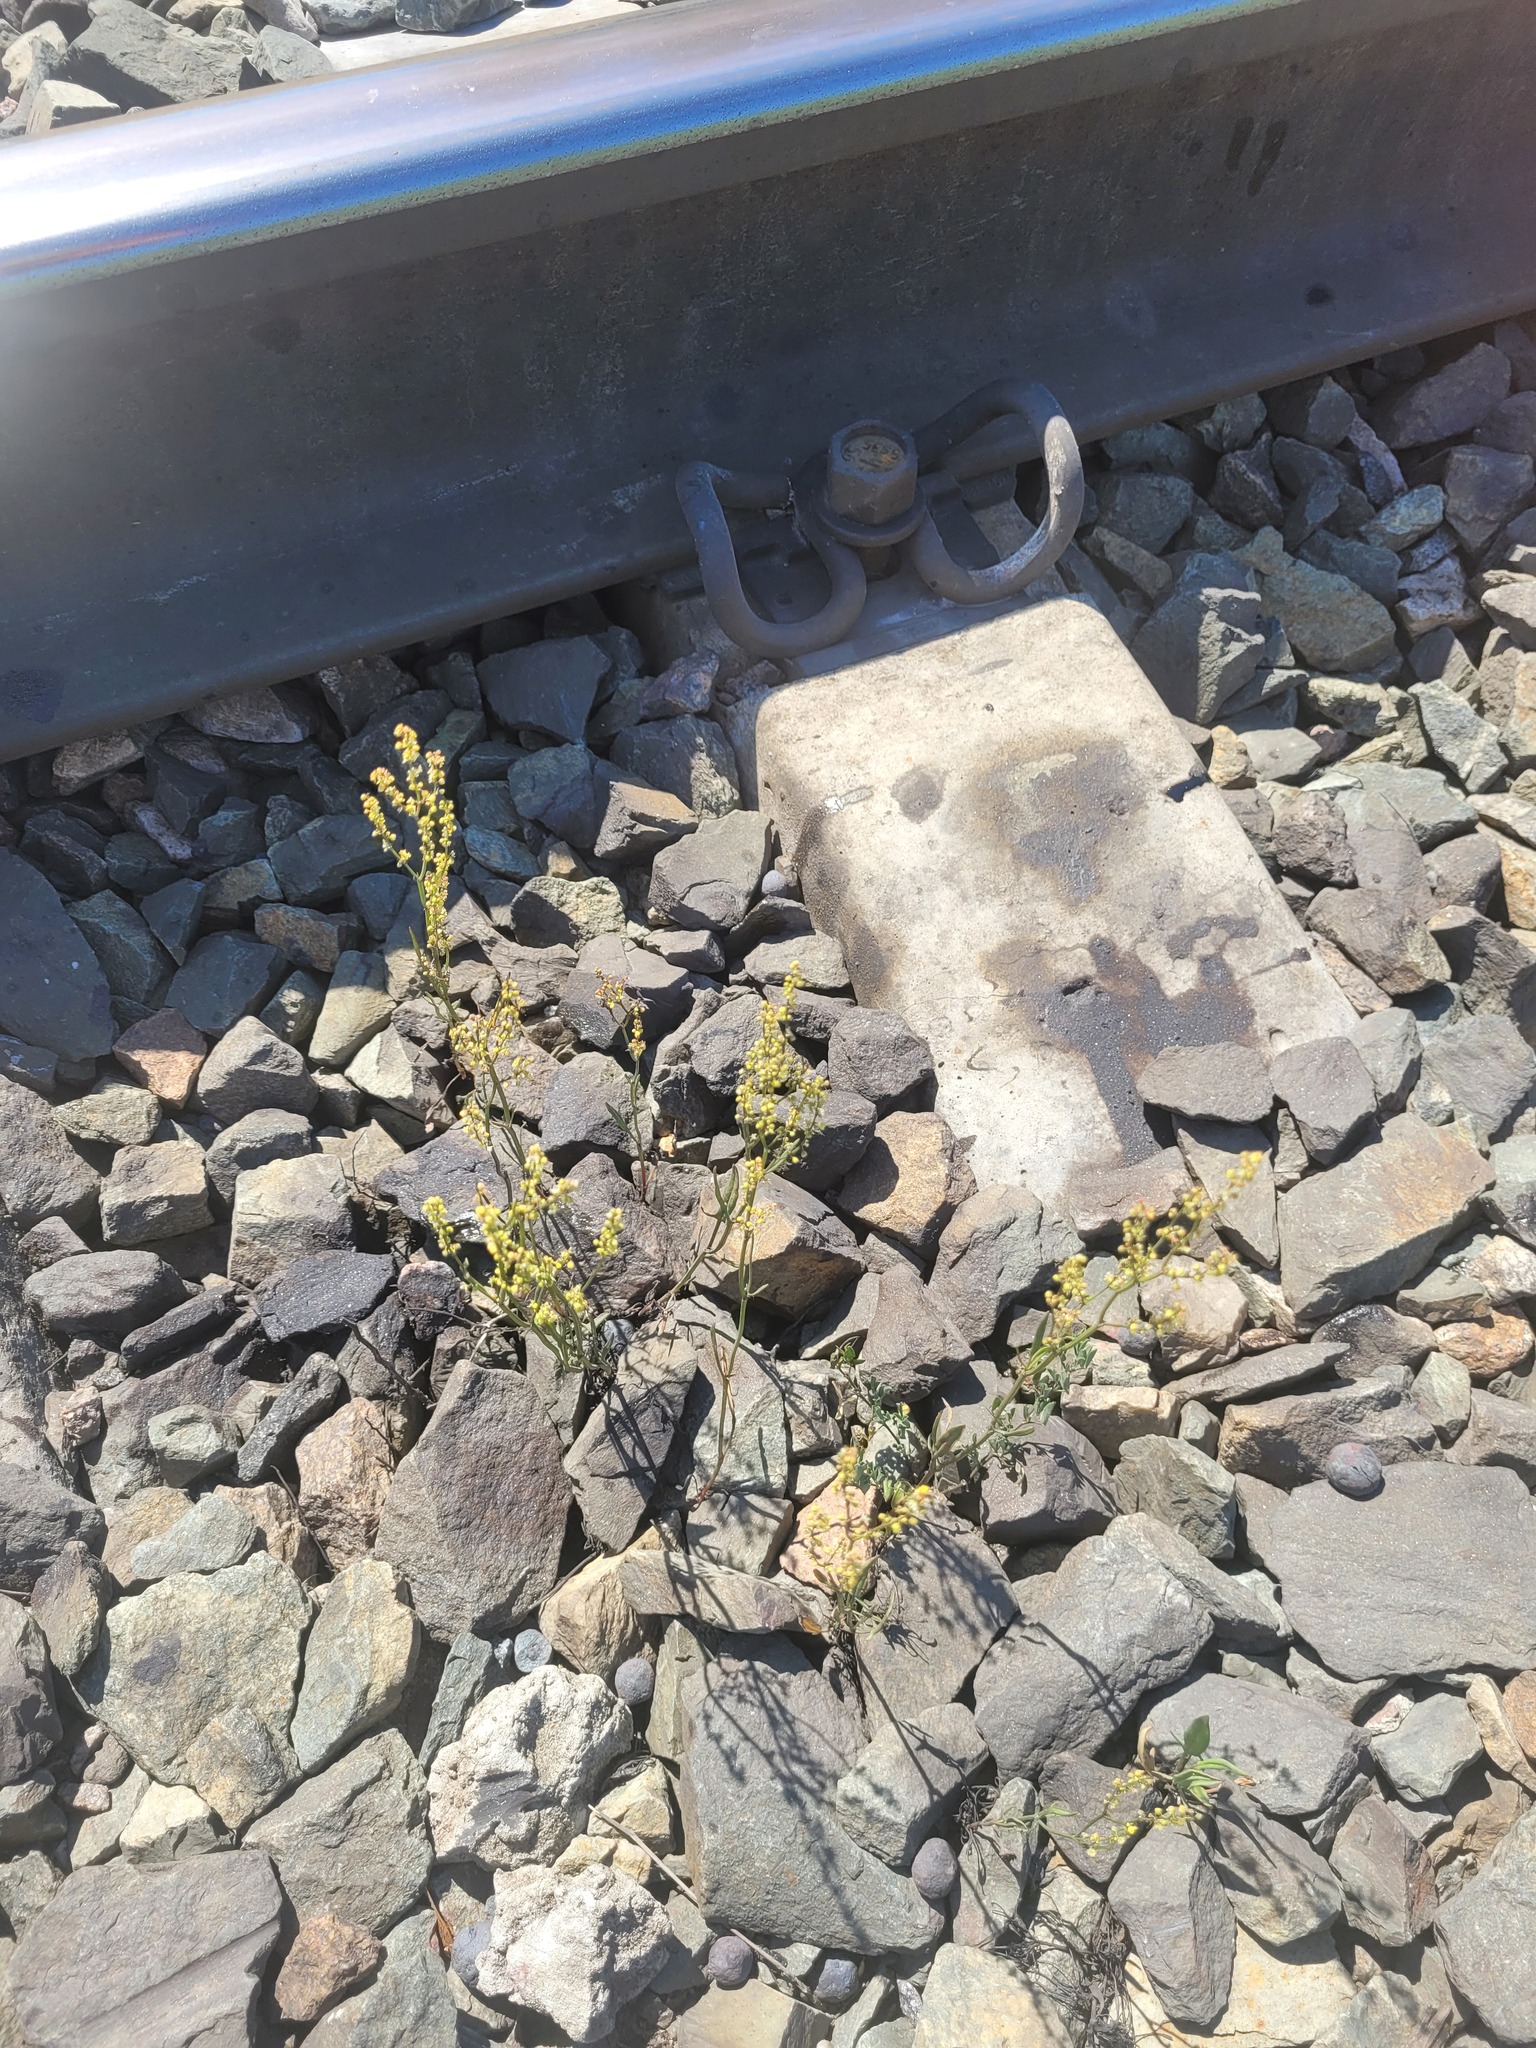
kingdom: Plantae
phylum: Tracheophyta
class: Magnoliopsida
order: Caryophyllales
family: Polygonaceae
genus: Rumex
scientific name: Rumex acetosella
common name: Common sheep sorrel
